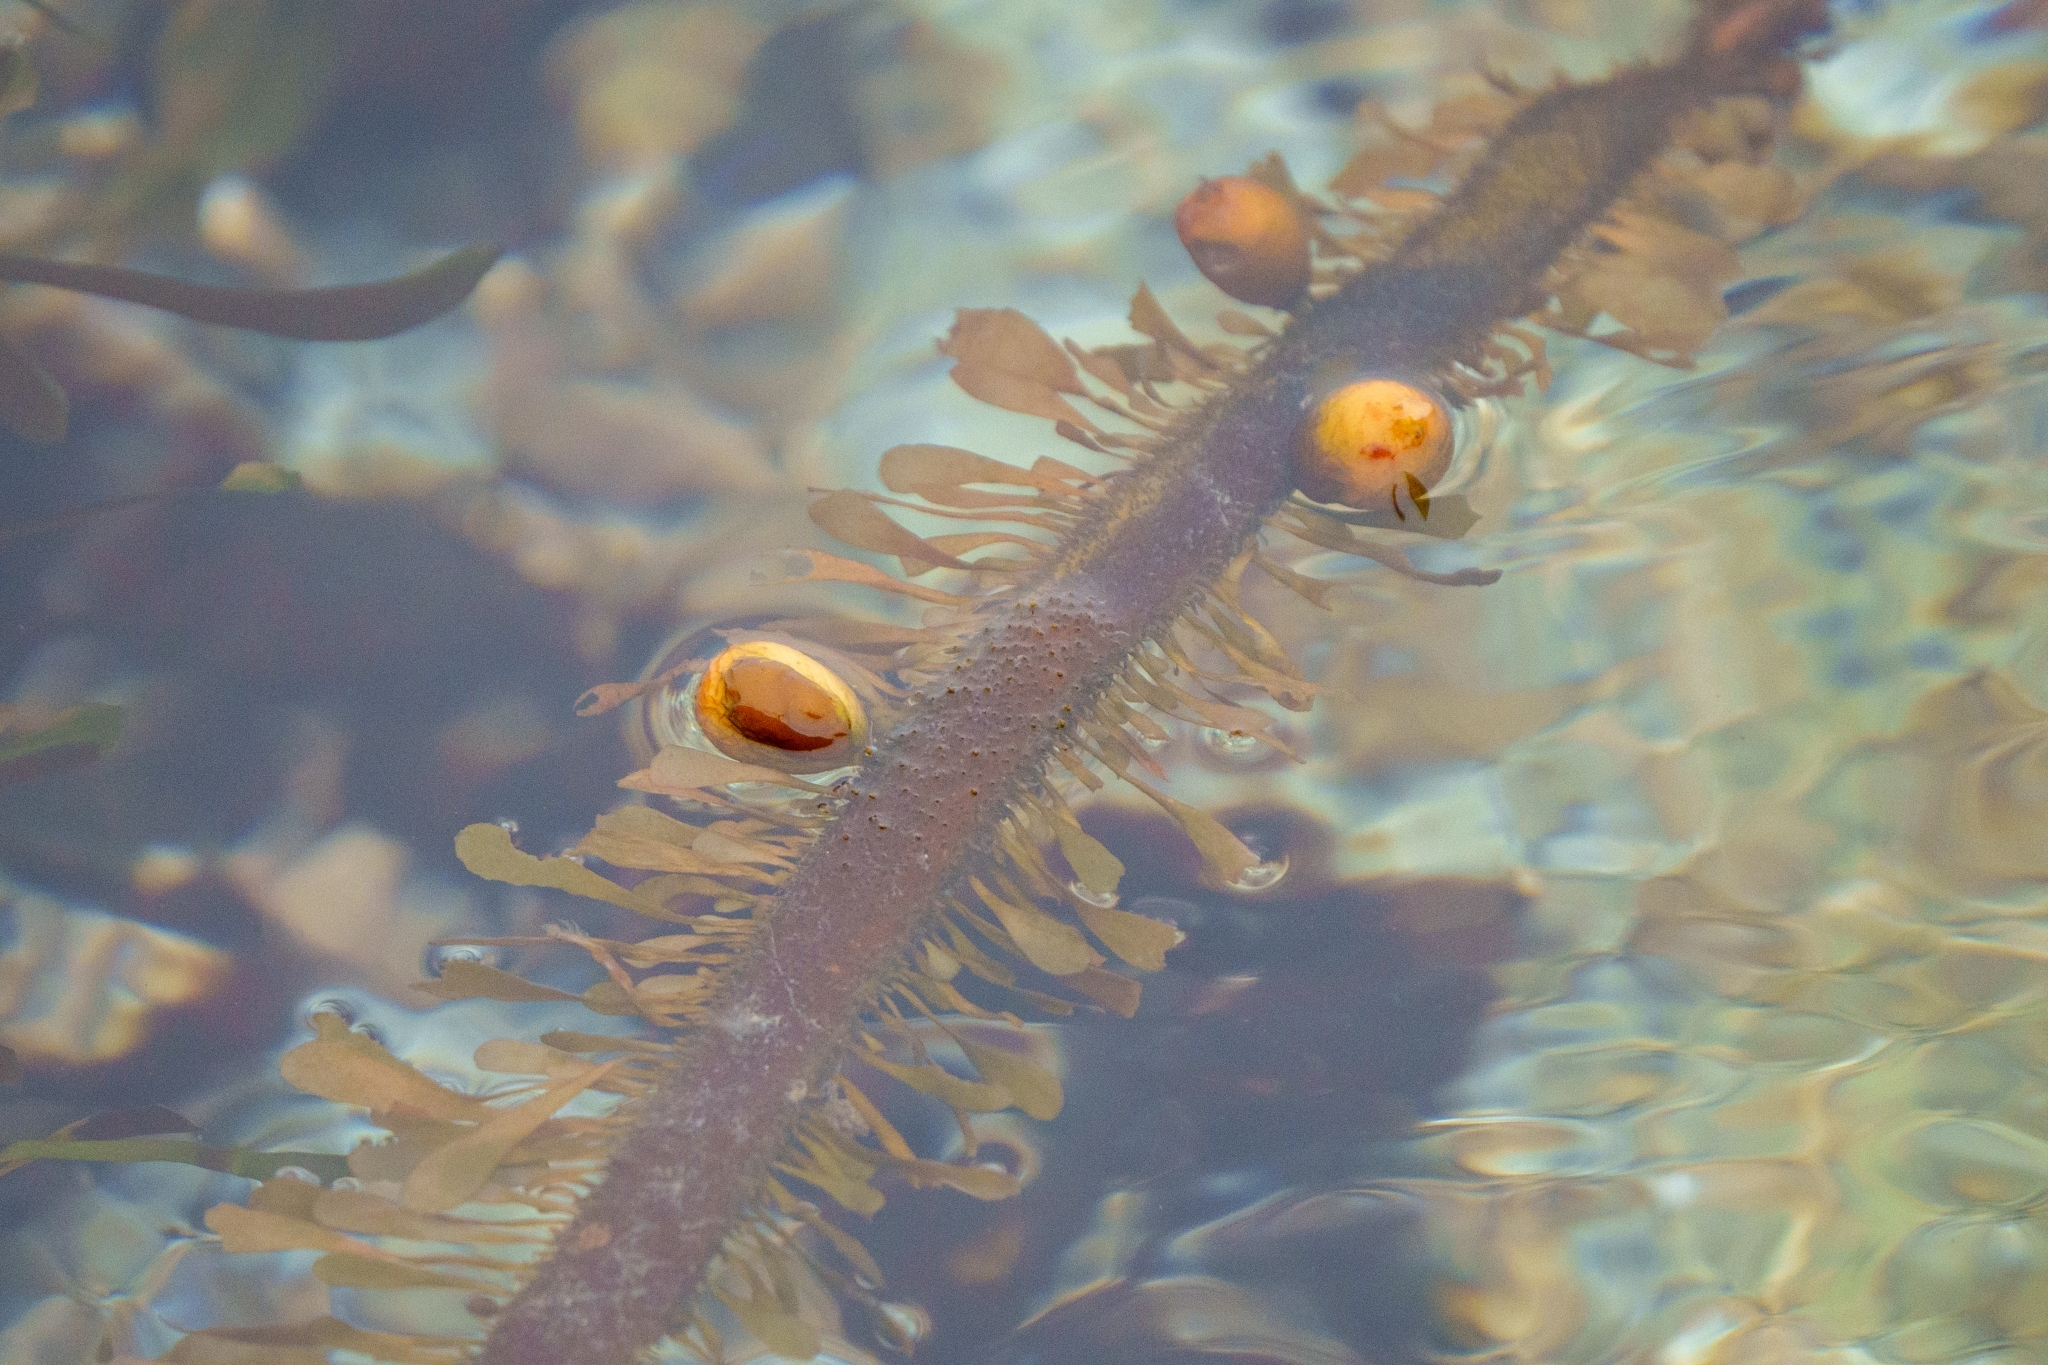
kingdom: Chromista
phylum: Ochrophyta
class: Phaeophyceae
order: Laminariales
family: Lessoniaceae
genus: Egregia
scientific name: Egregia menziesii
